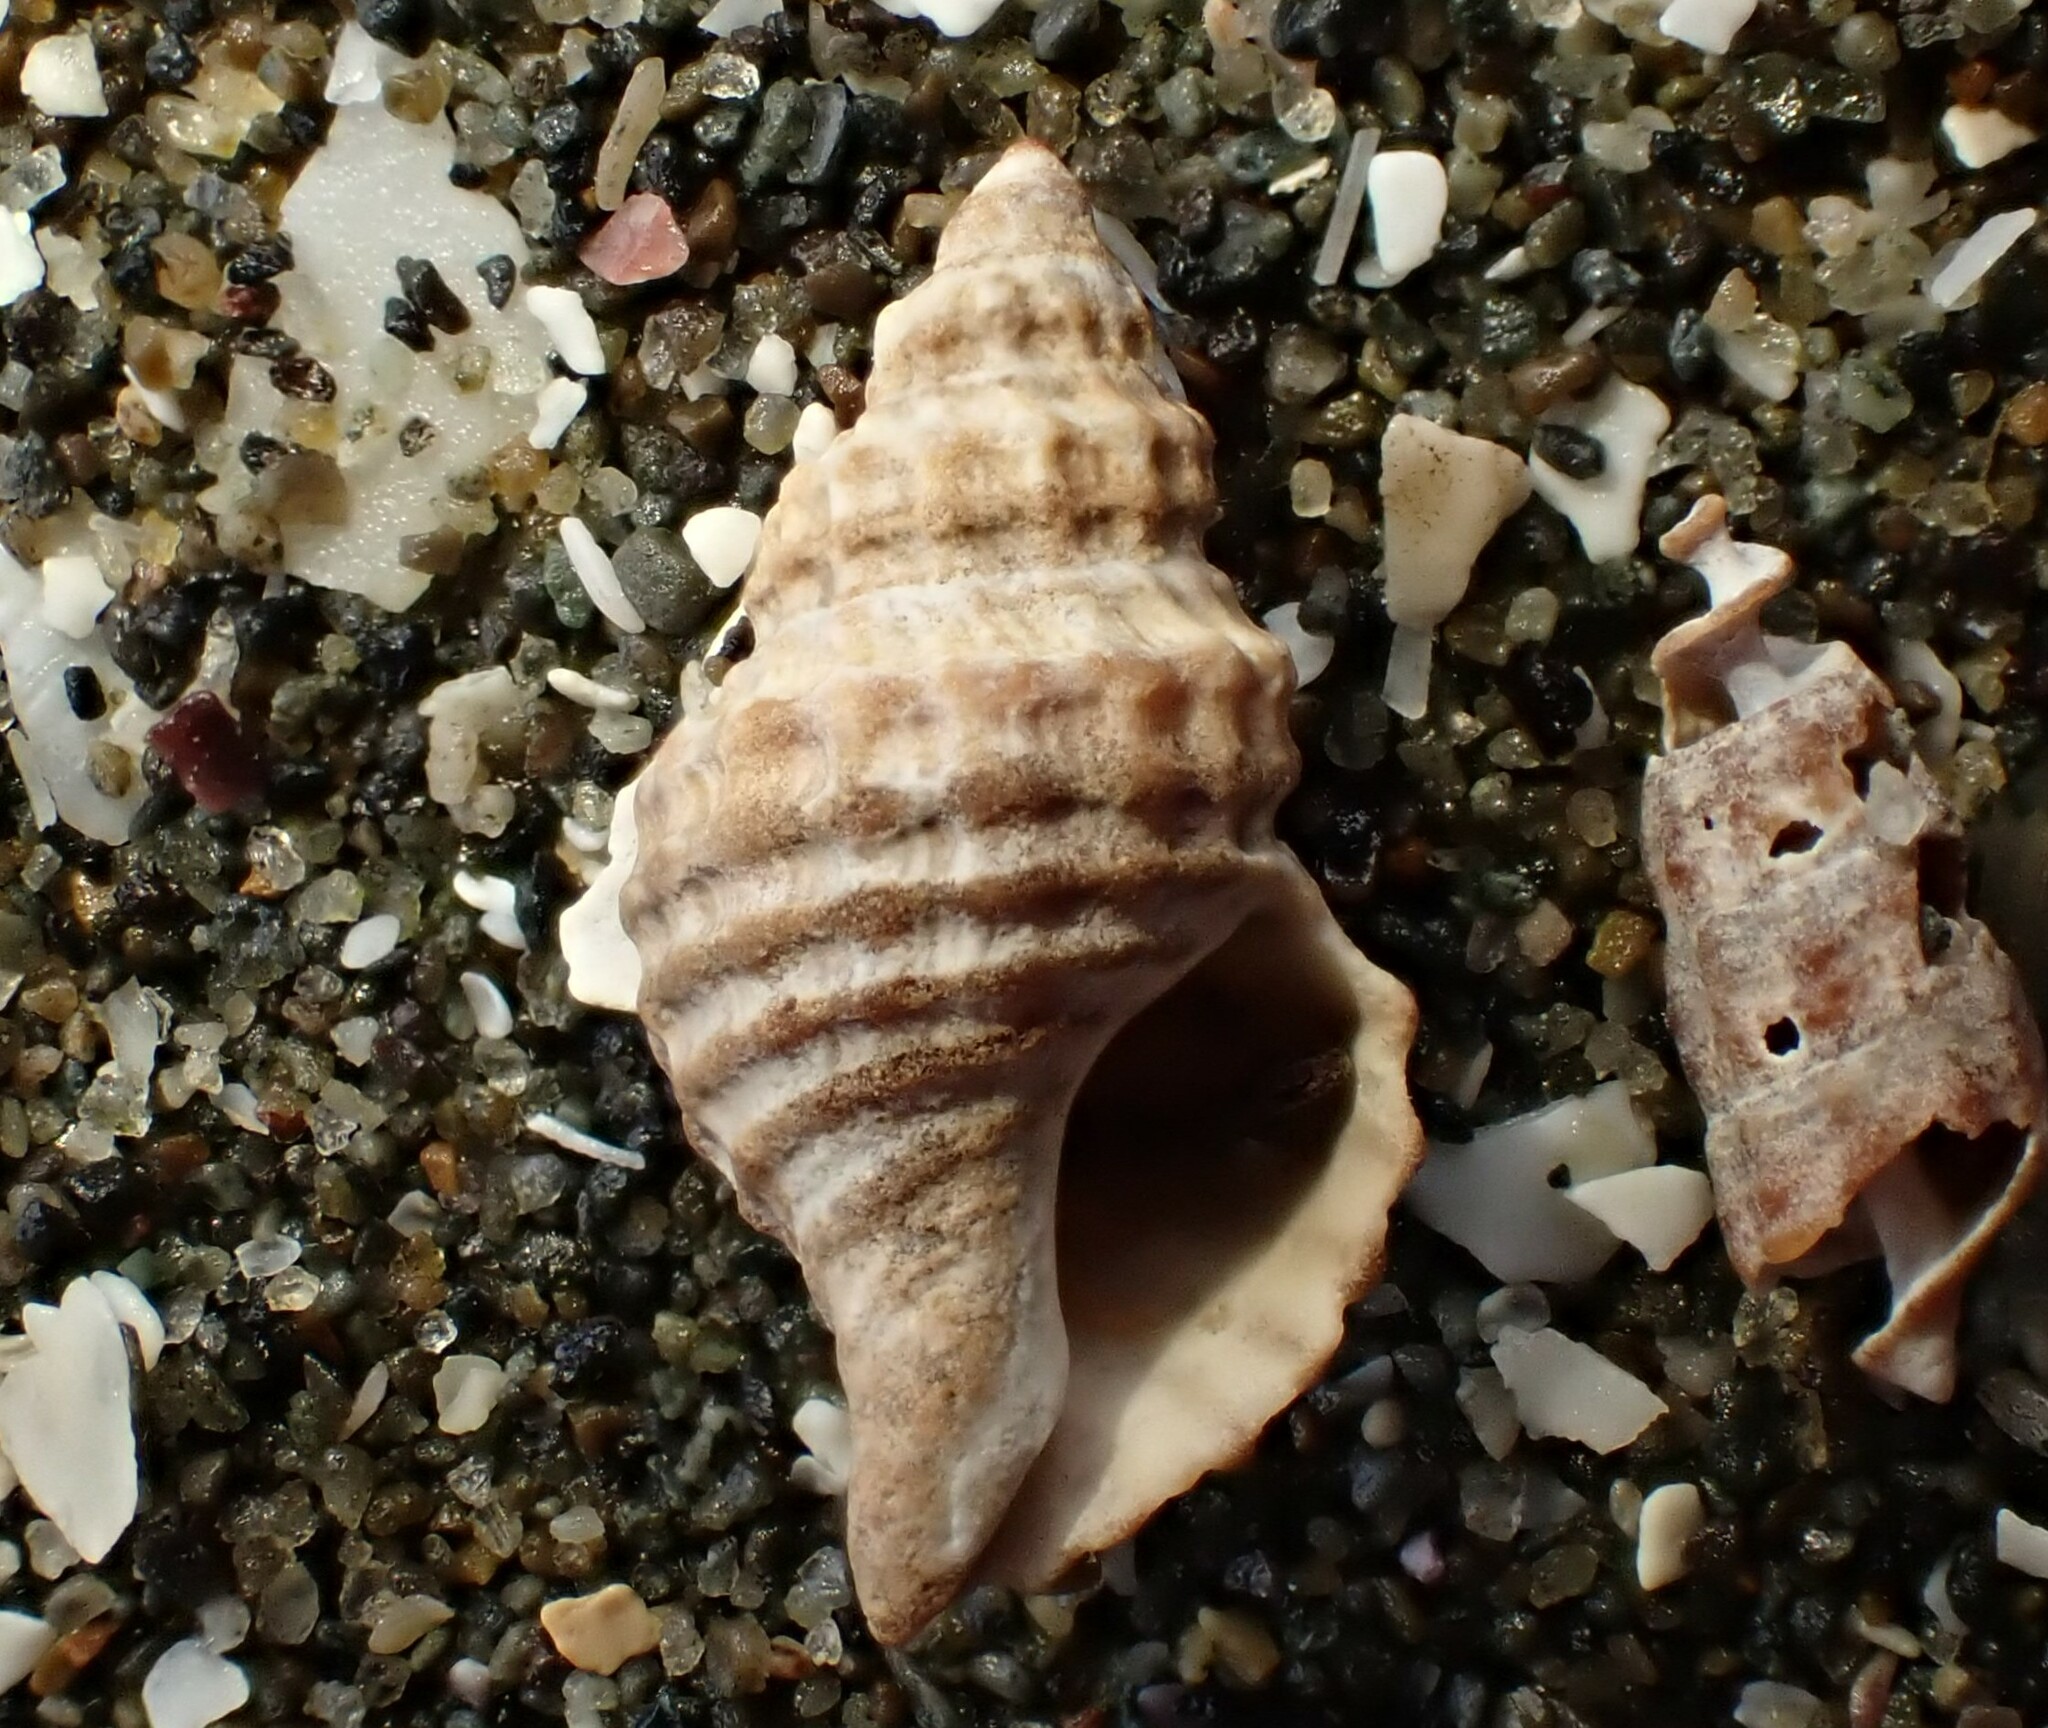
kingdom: Animalia
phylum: Mollusca
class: Gastropoda
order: Neogastropoda
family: Muricidae
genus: Xymene
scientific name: Xymene plebeius
